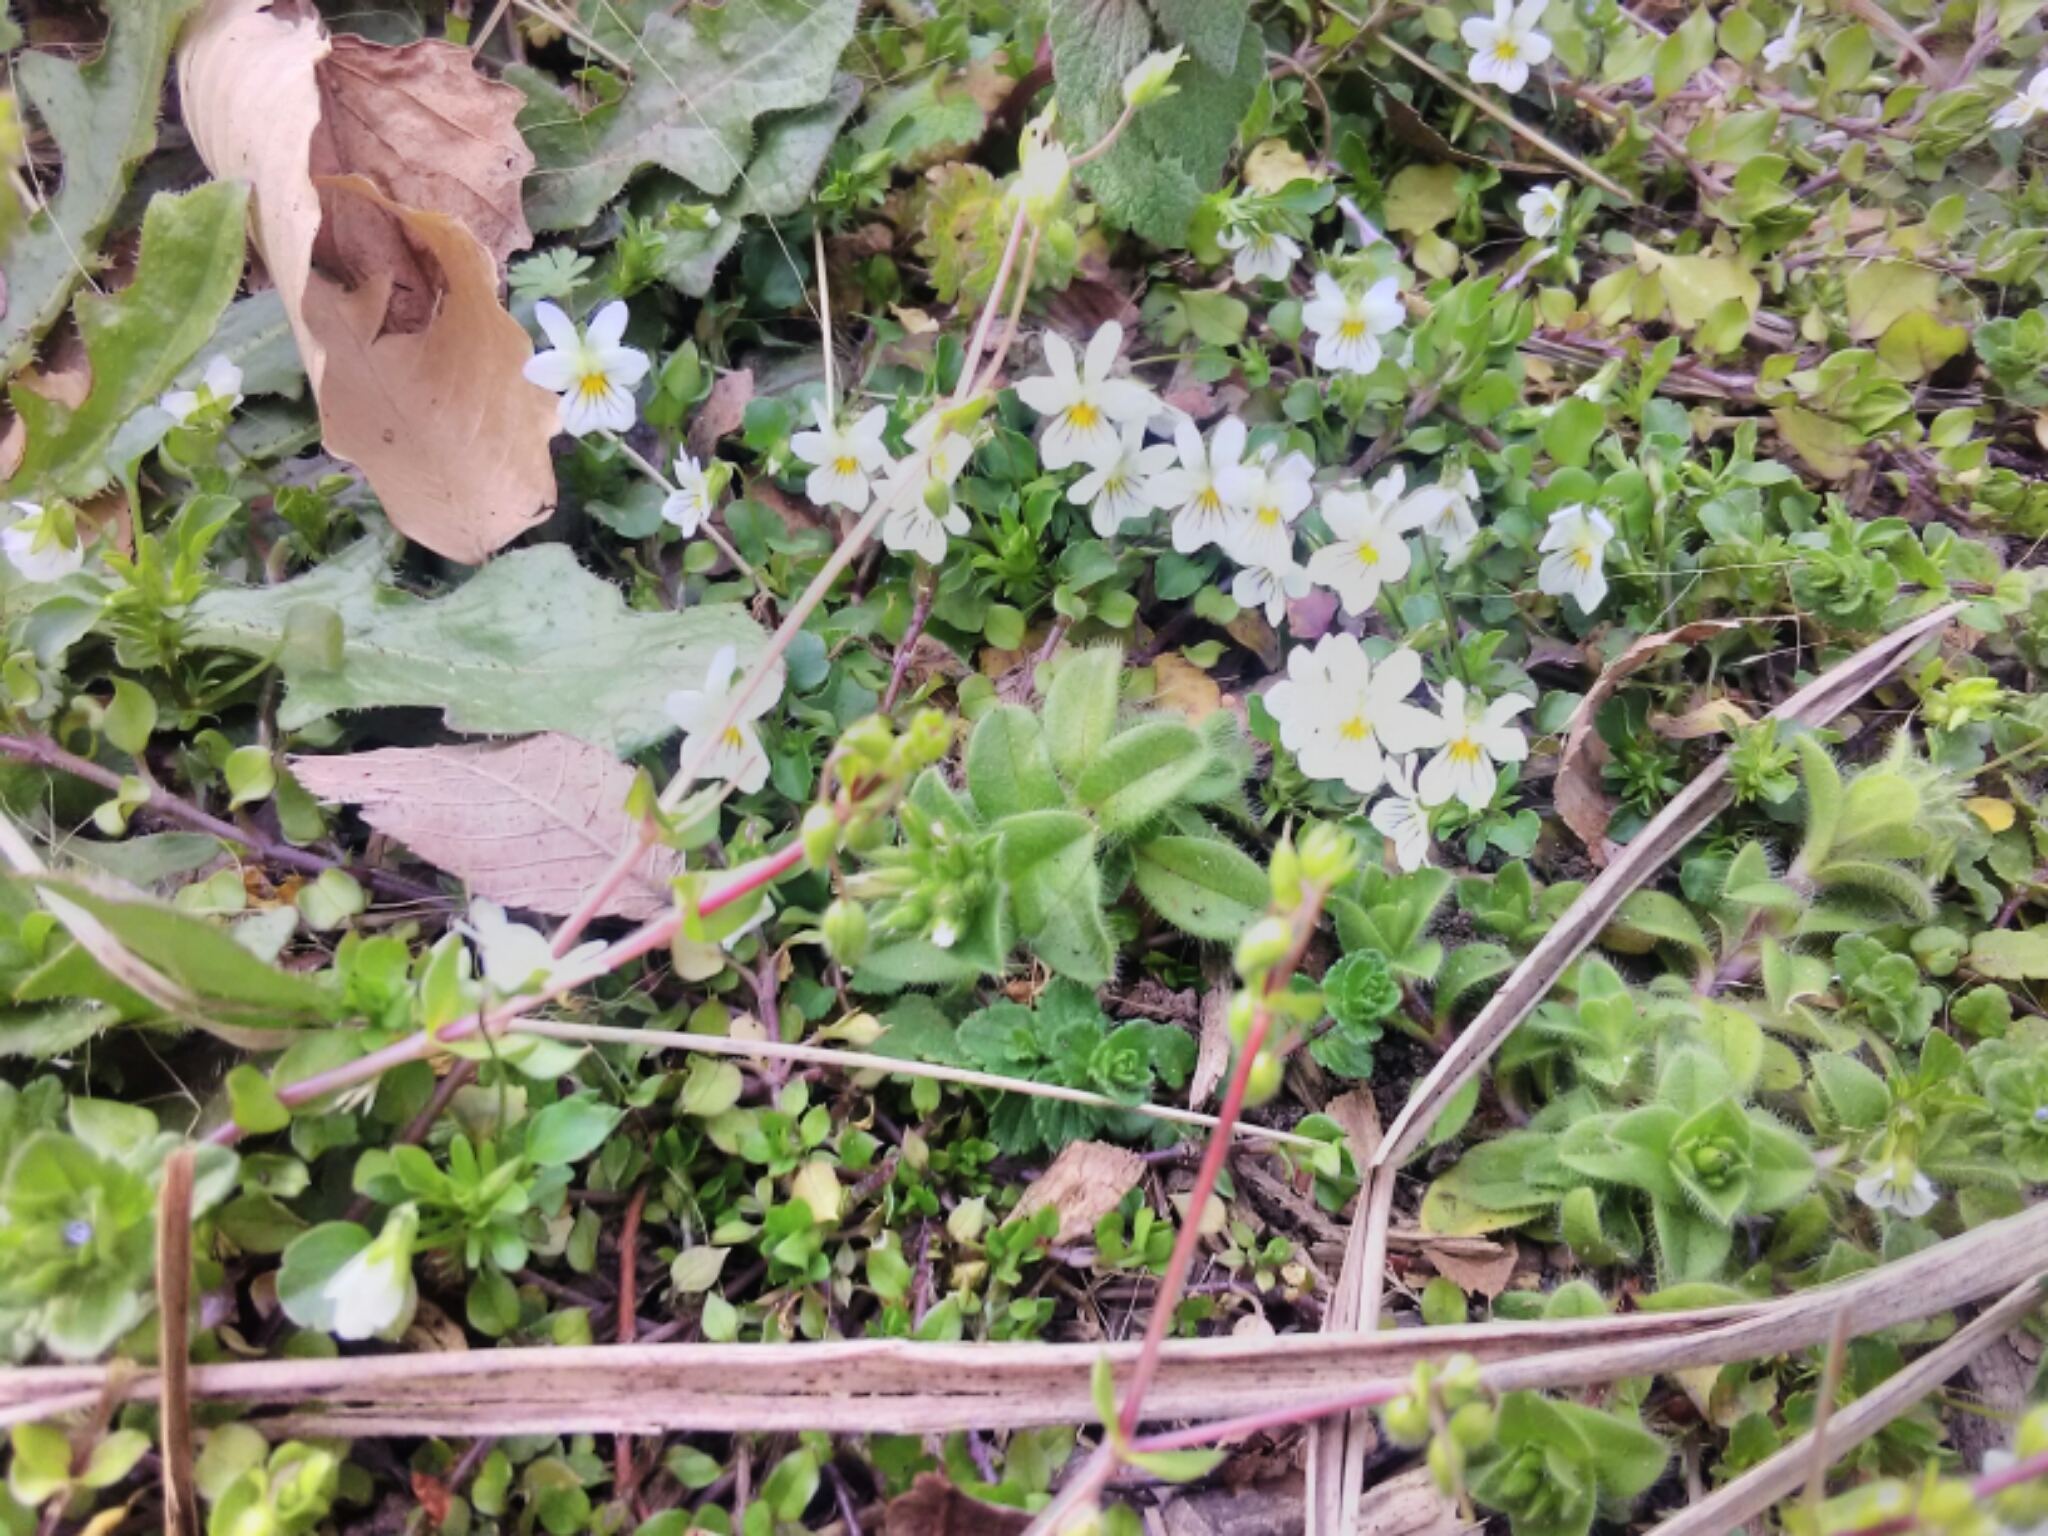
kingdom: Plantae
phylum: Tracheophyta
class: Magnoliopsida
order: Malpighiales
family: Violaceae
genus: Viola
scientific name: Viola rafinesquei
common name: American field pansy
